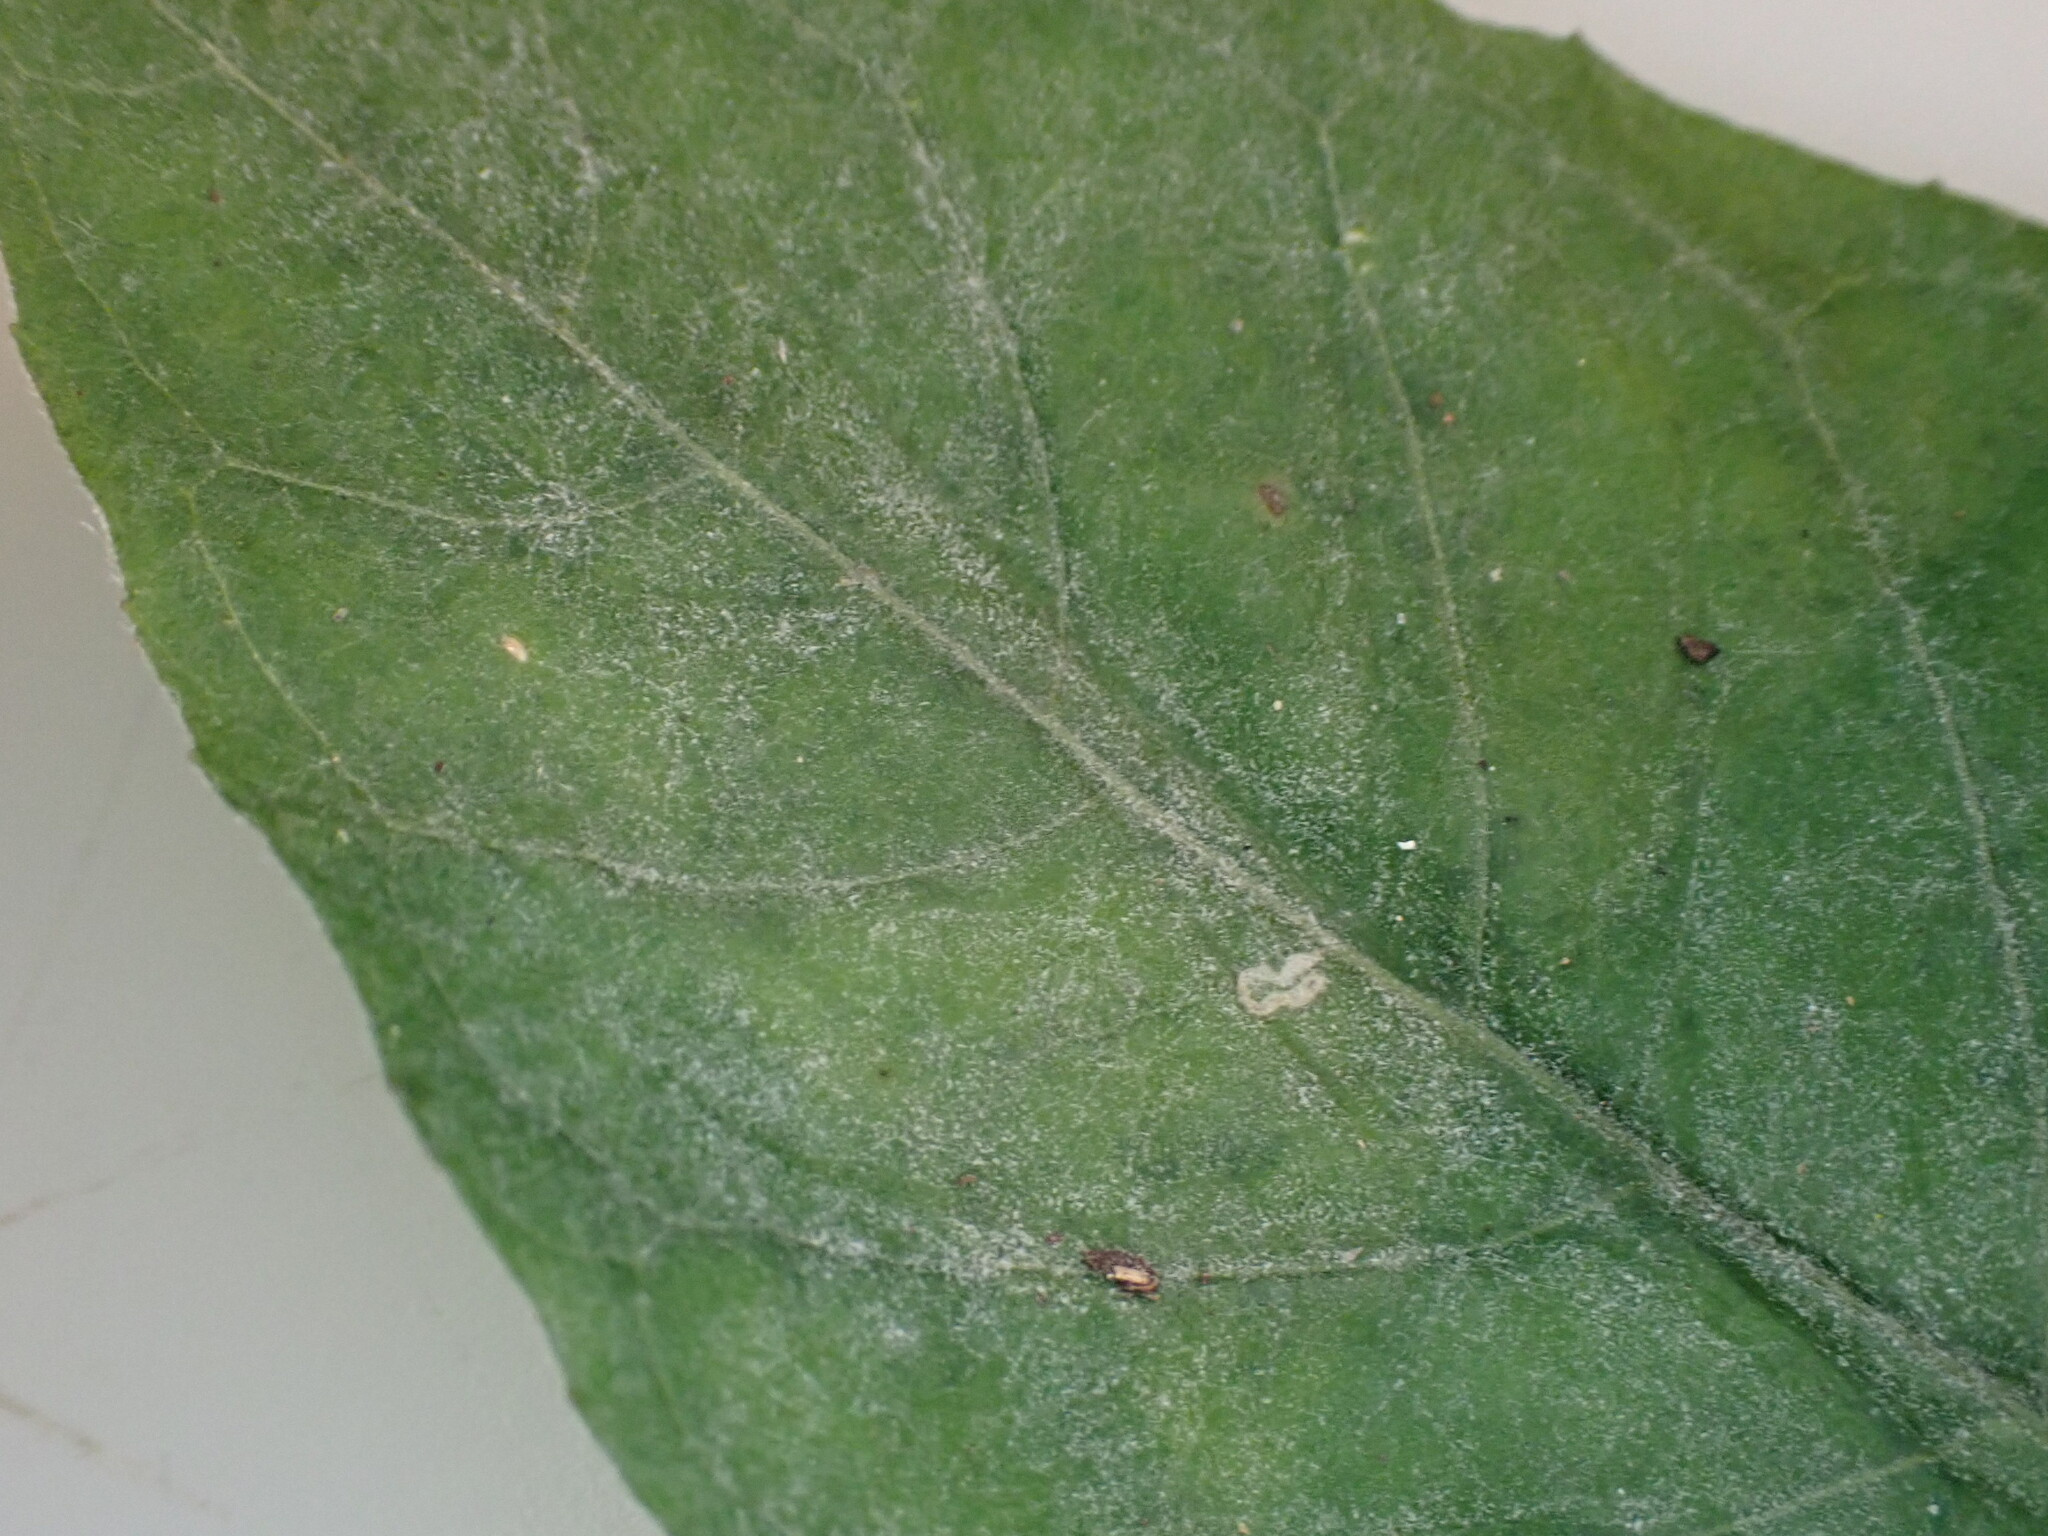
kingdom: Fungi
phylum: Ascomycota
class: Leotiomycetes
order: Helotiales
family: Erysiphaceae
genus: Erysiphe
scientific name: Erysiphe circaeae
